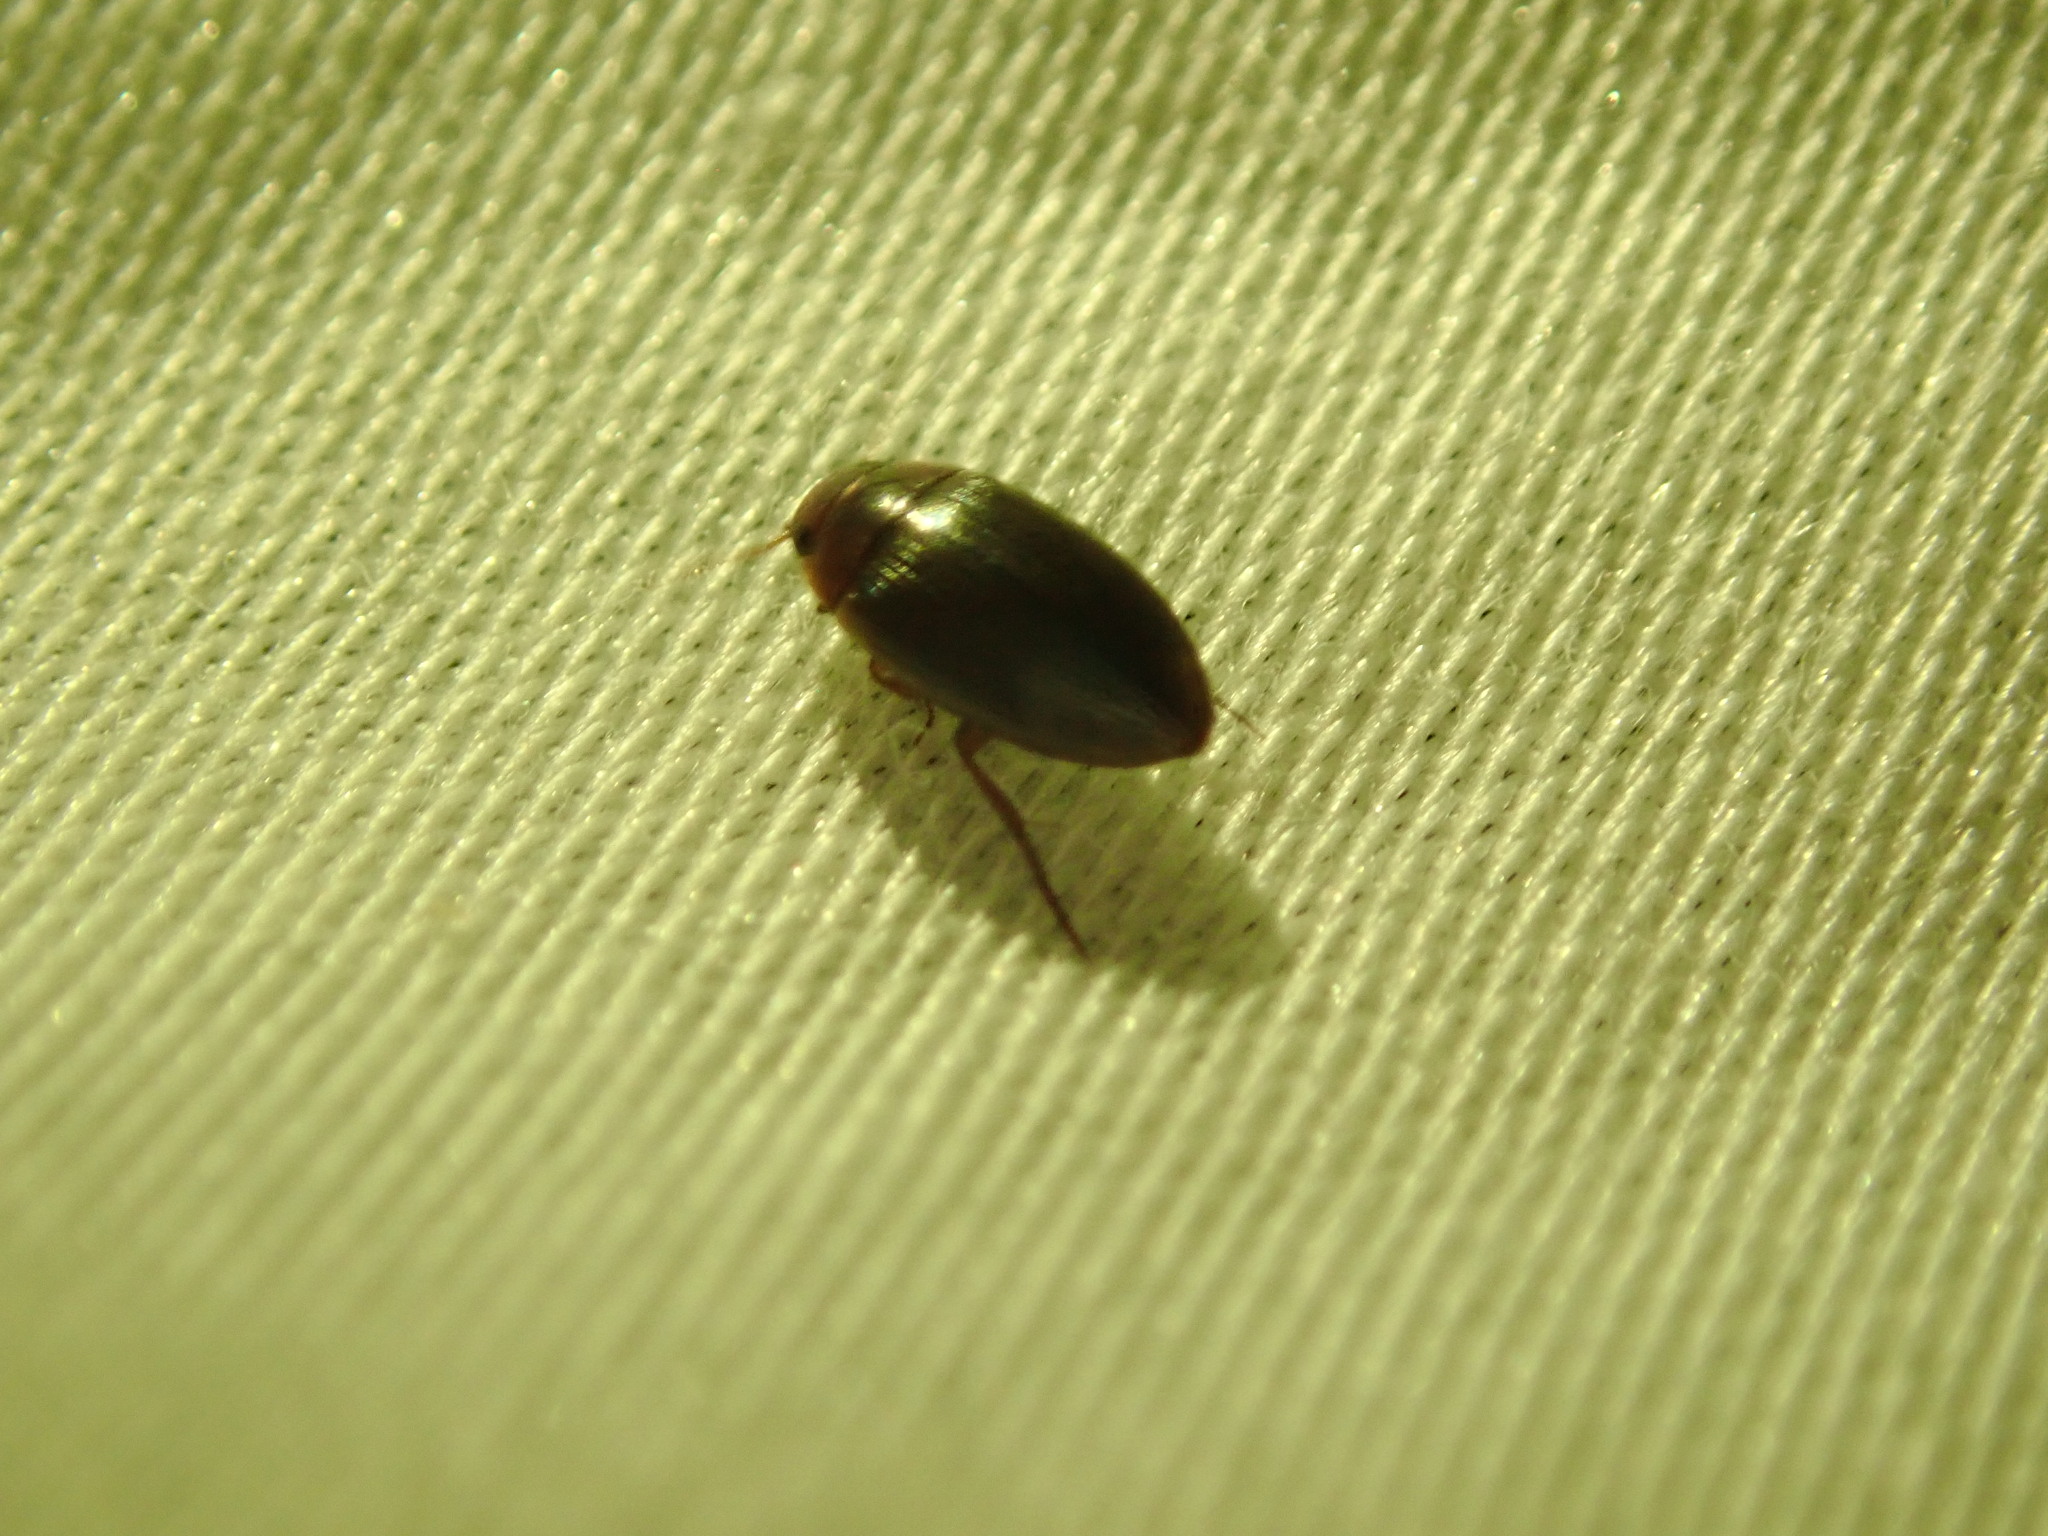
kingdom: Animalia
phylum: Arthropoda
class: Insecta
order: Coleoptera
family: Dytiscidae
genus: Copelatus
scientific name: Copelatus glyphicus
